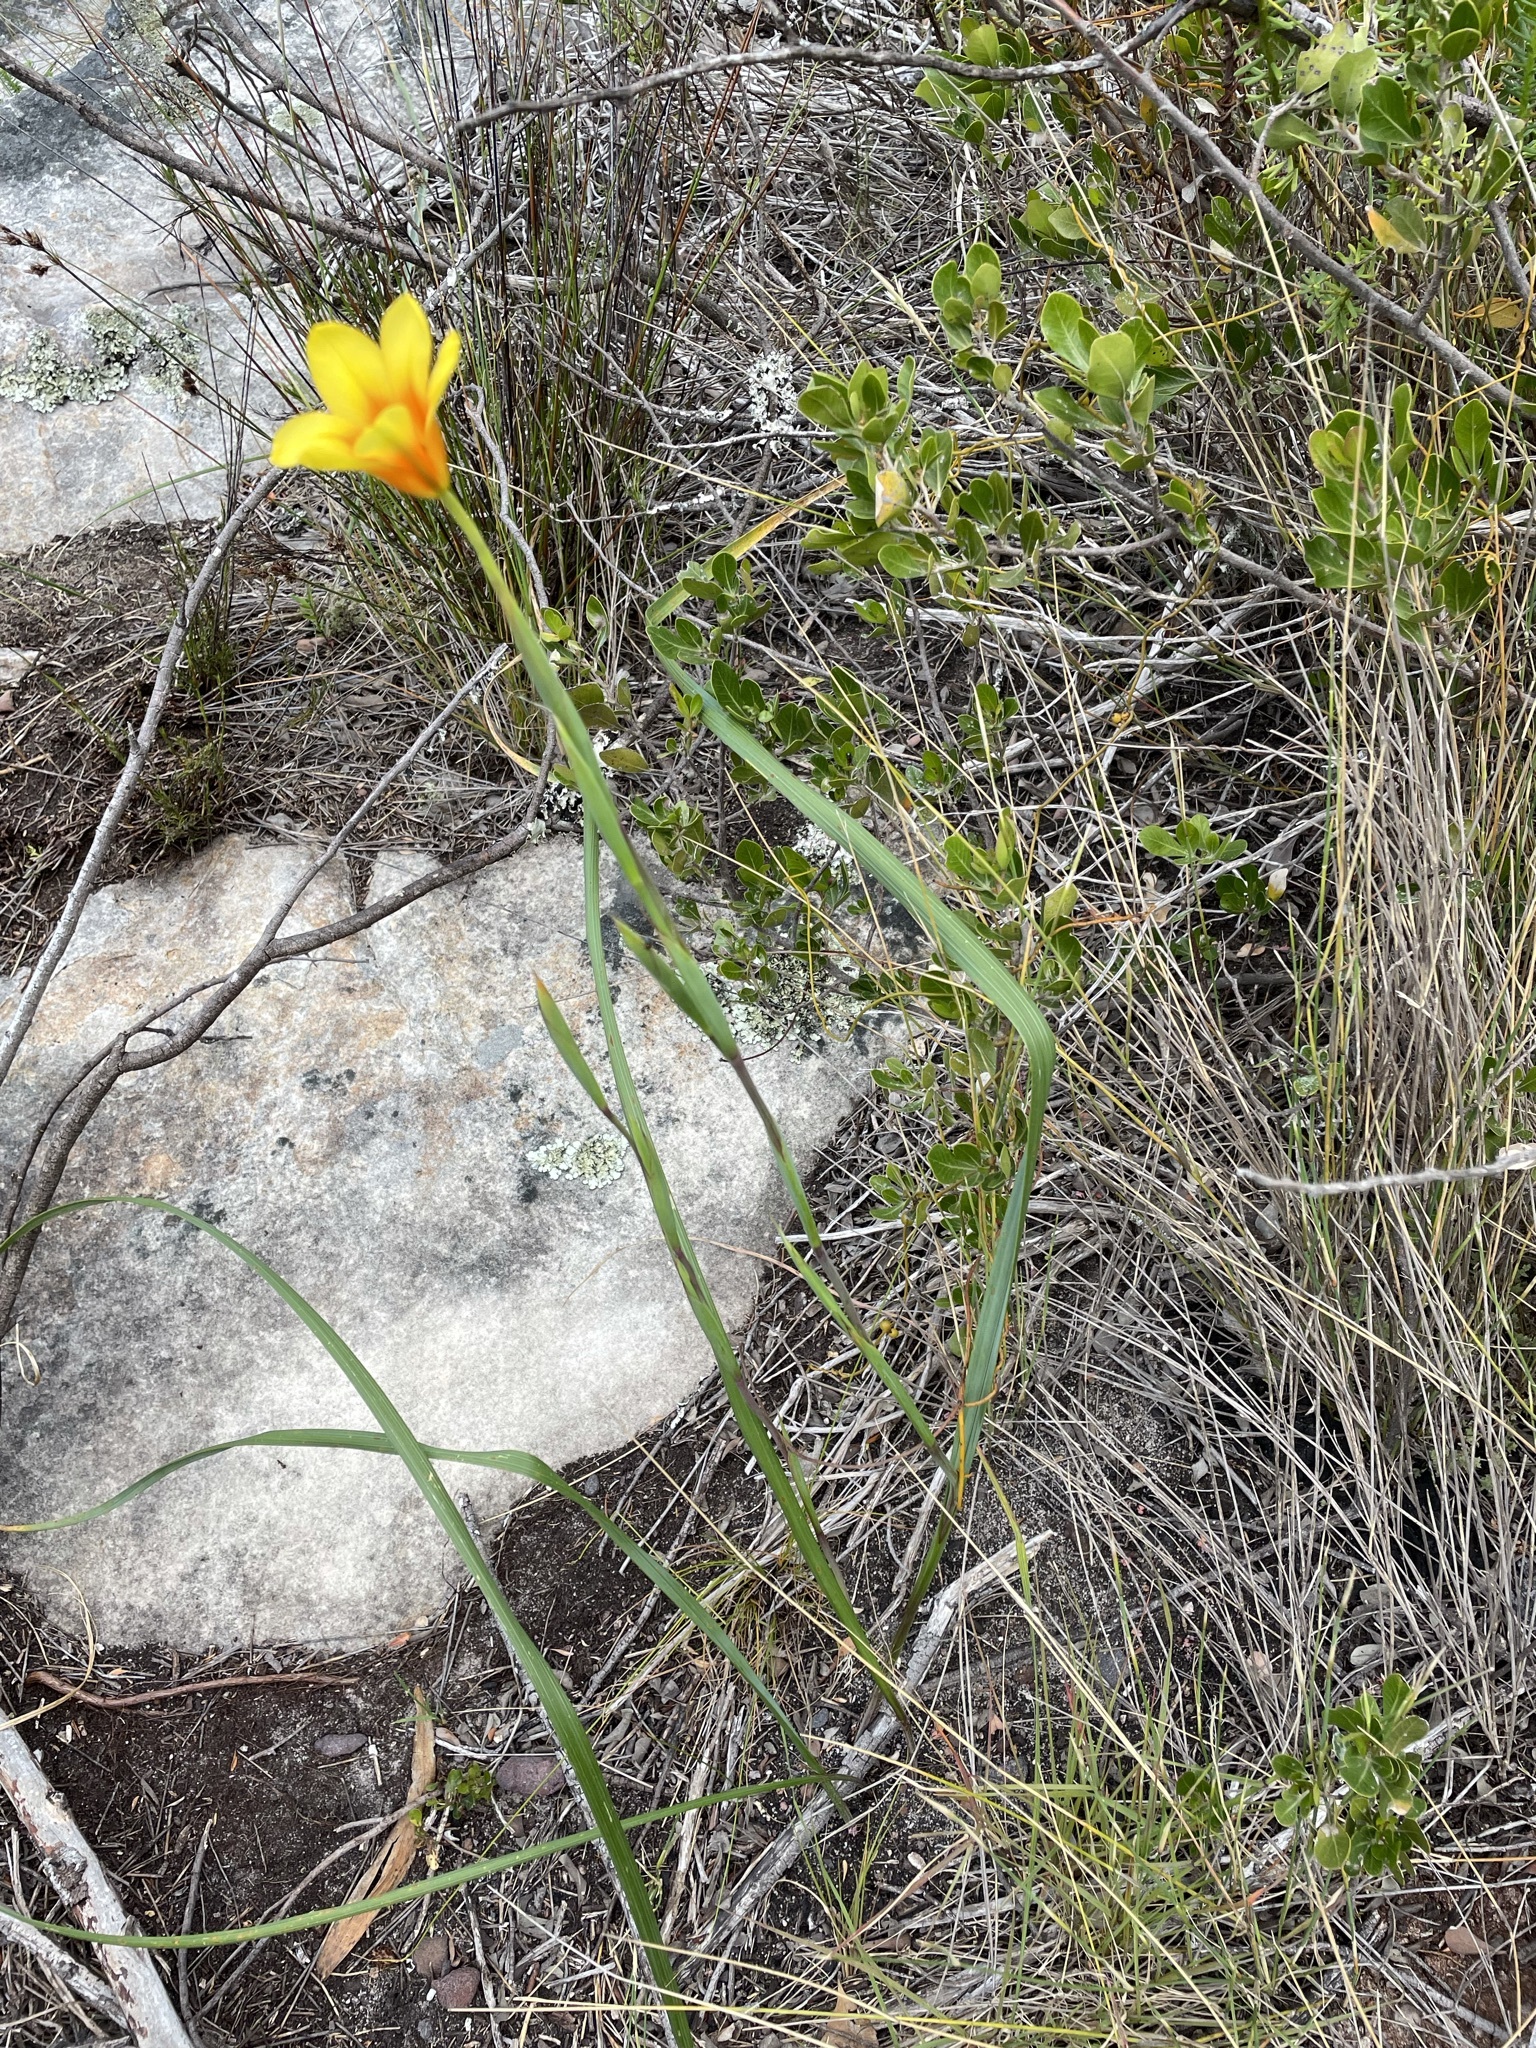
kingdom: Plantae
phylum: Tracheophyta
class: Liliopsida
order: Asparagales
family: Iridaceae
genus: Moraea
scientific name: Moraea ochroleuca
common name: Red tulp
